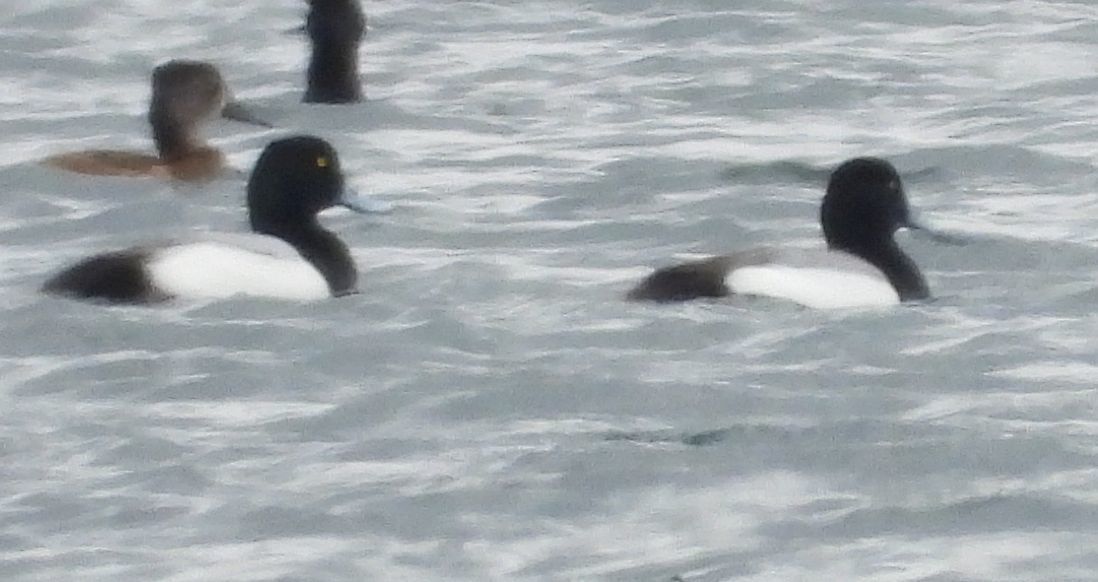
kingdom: Animalia
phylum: Chordata
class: Aves
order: Anseriformes
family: Anatidae
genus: Aythya
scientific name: Aythya marila
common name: Greater scaup
